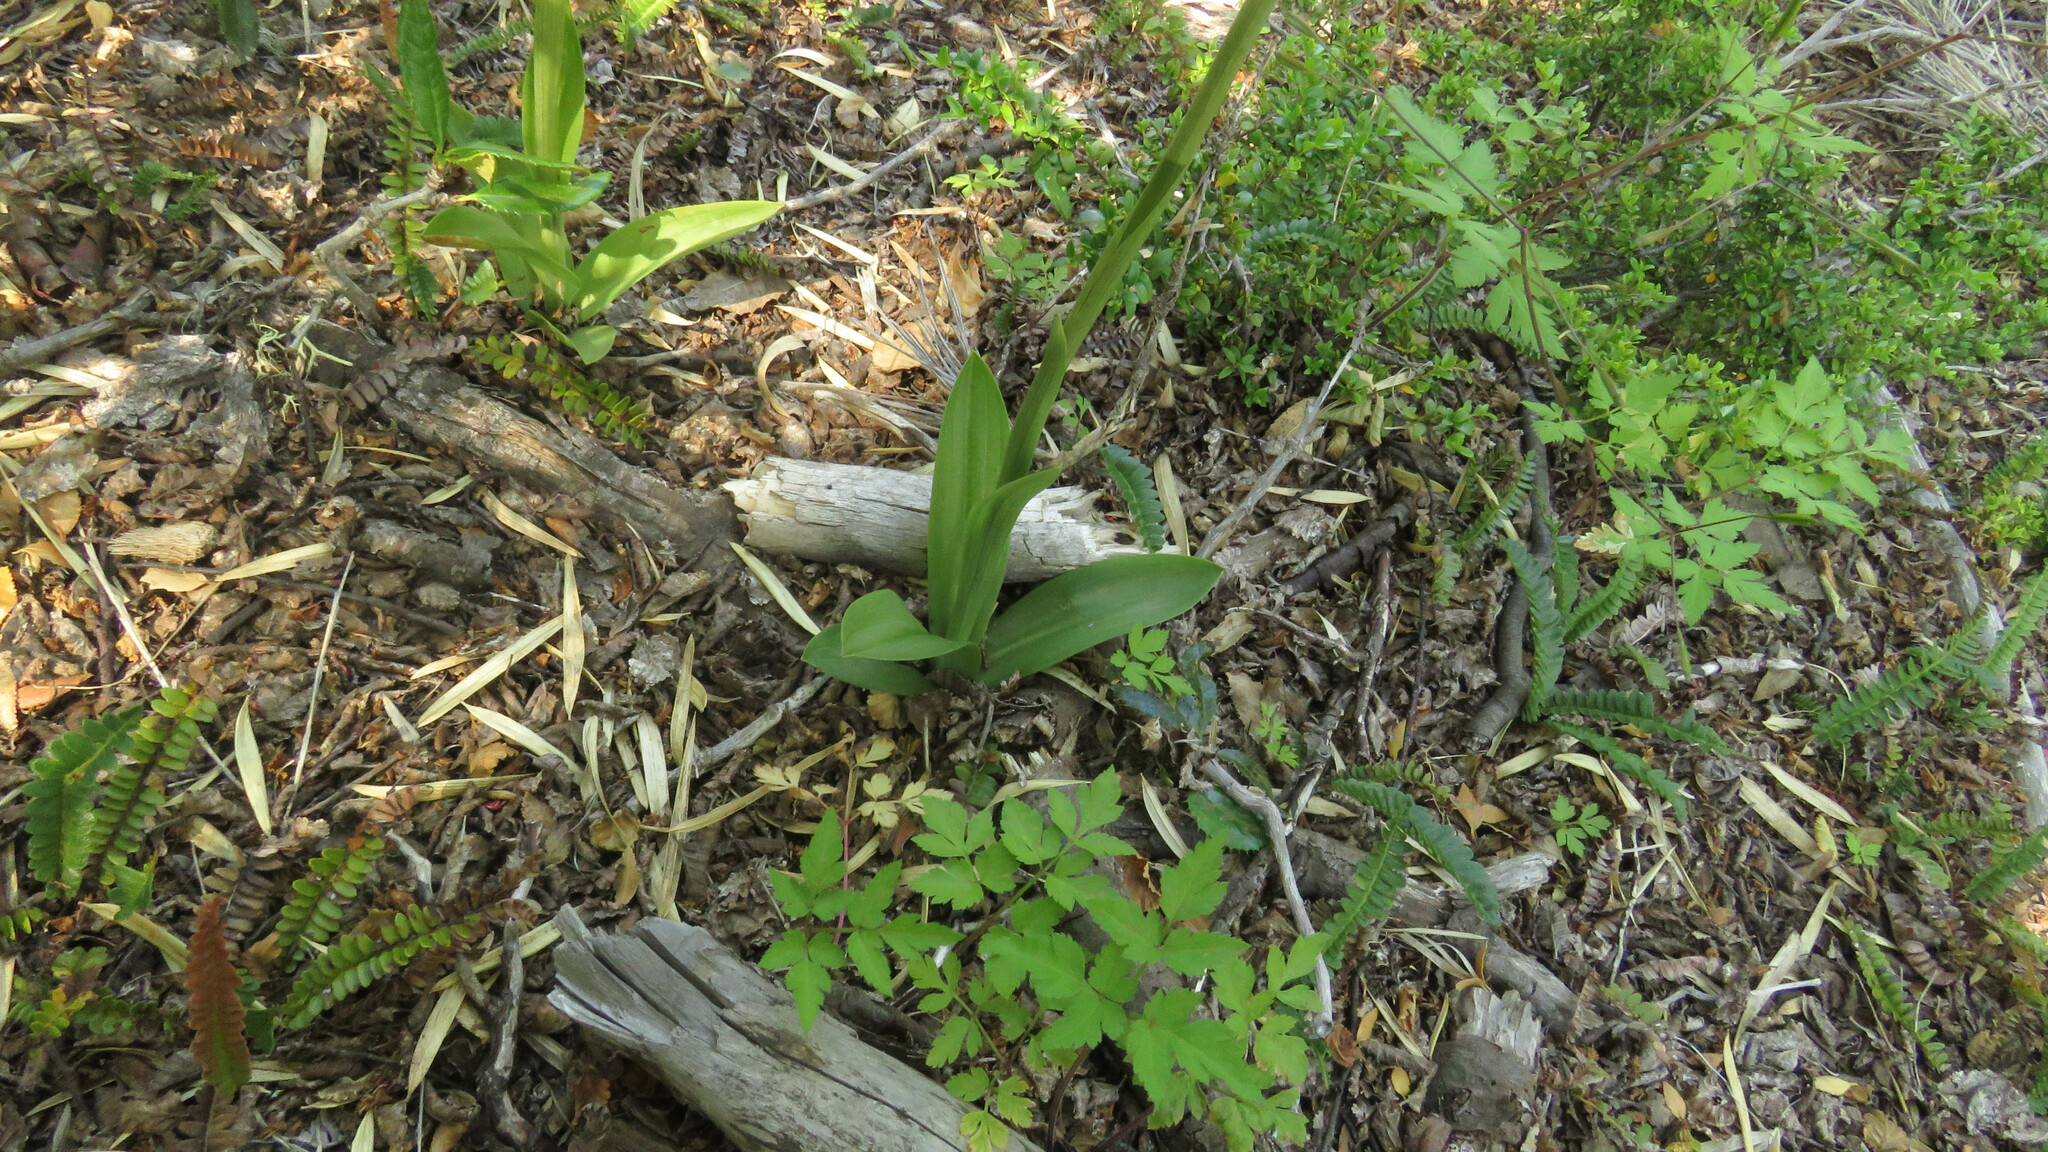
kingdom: Plantae
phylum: Tracheophyta
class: Liliopsida
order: Asparagales
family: Orchidaceae
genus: Gavilea
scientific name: Gavilea lutea
